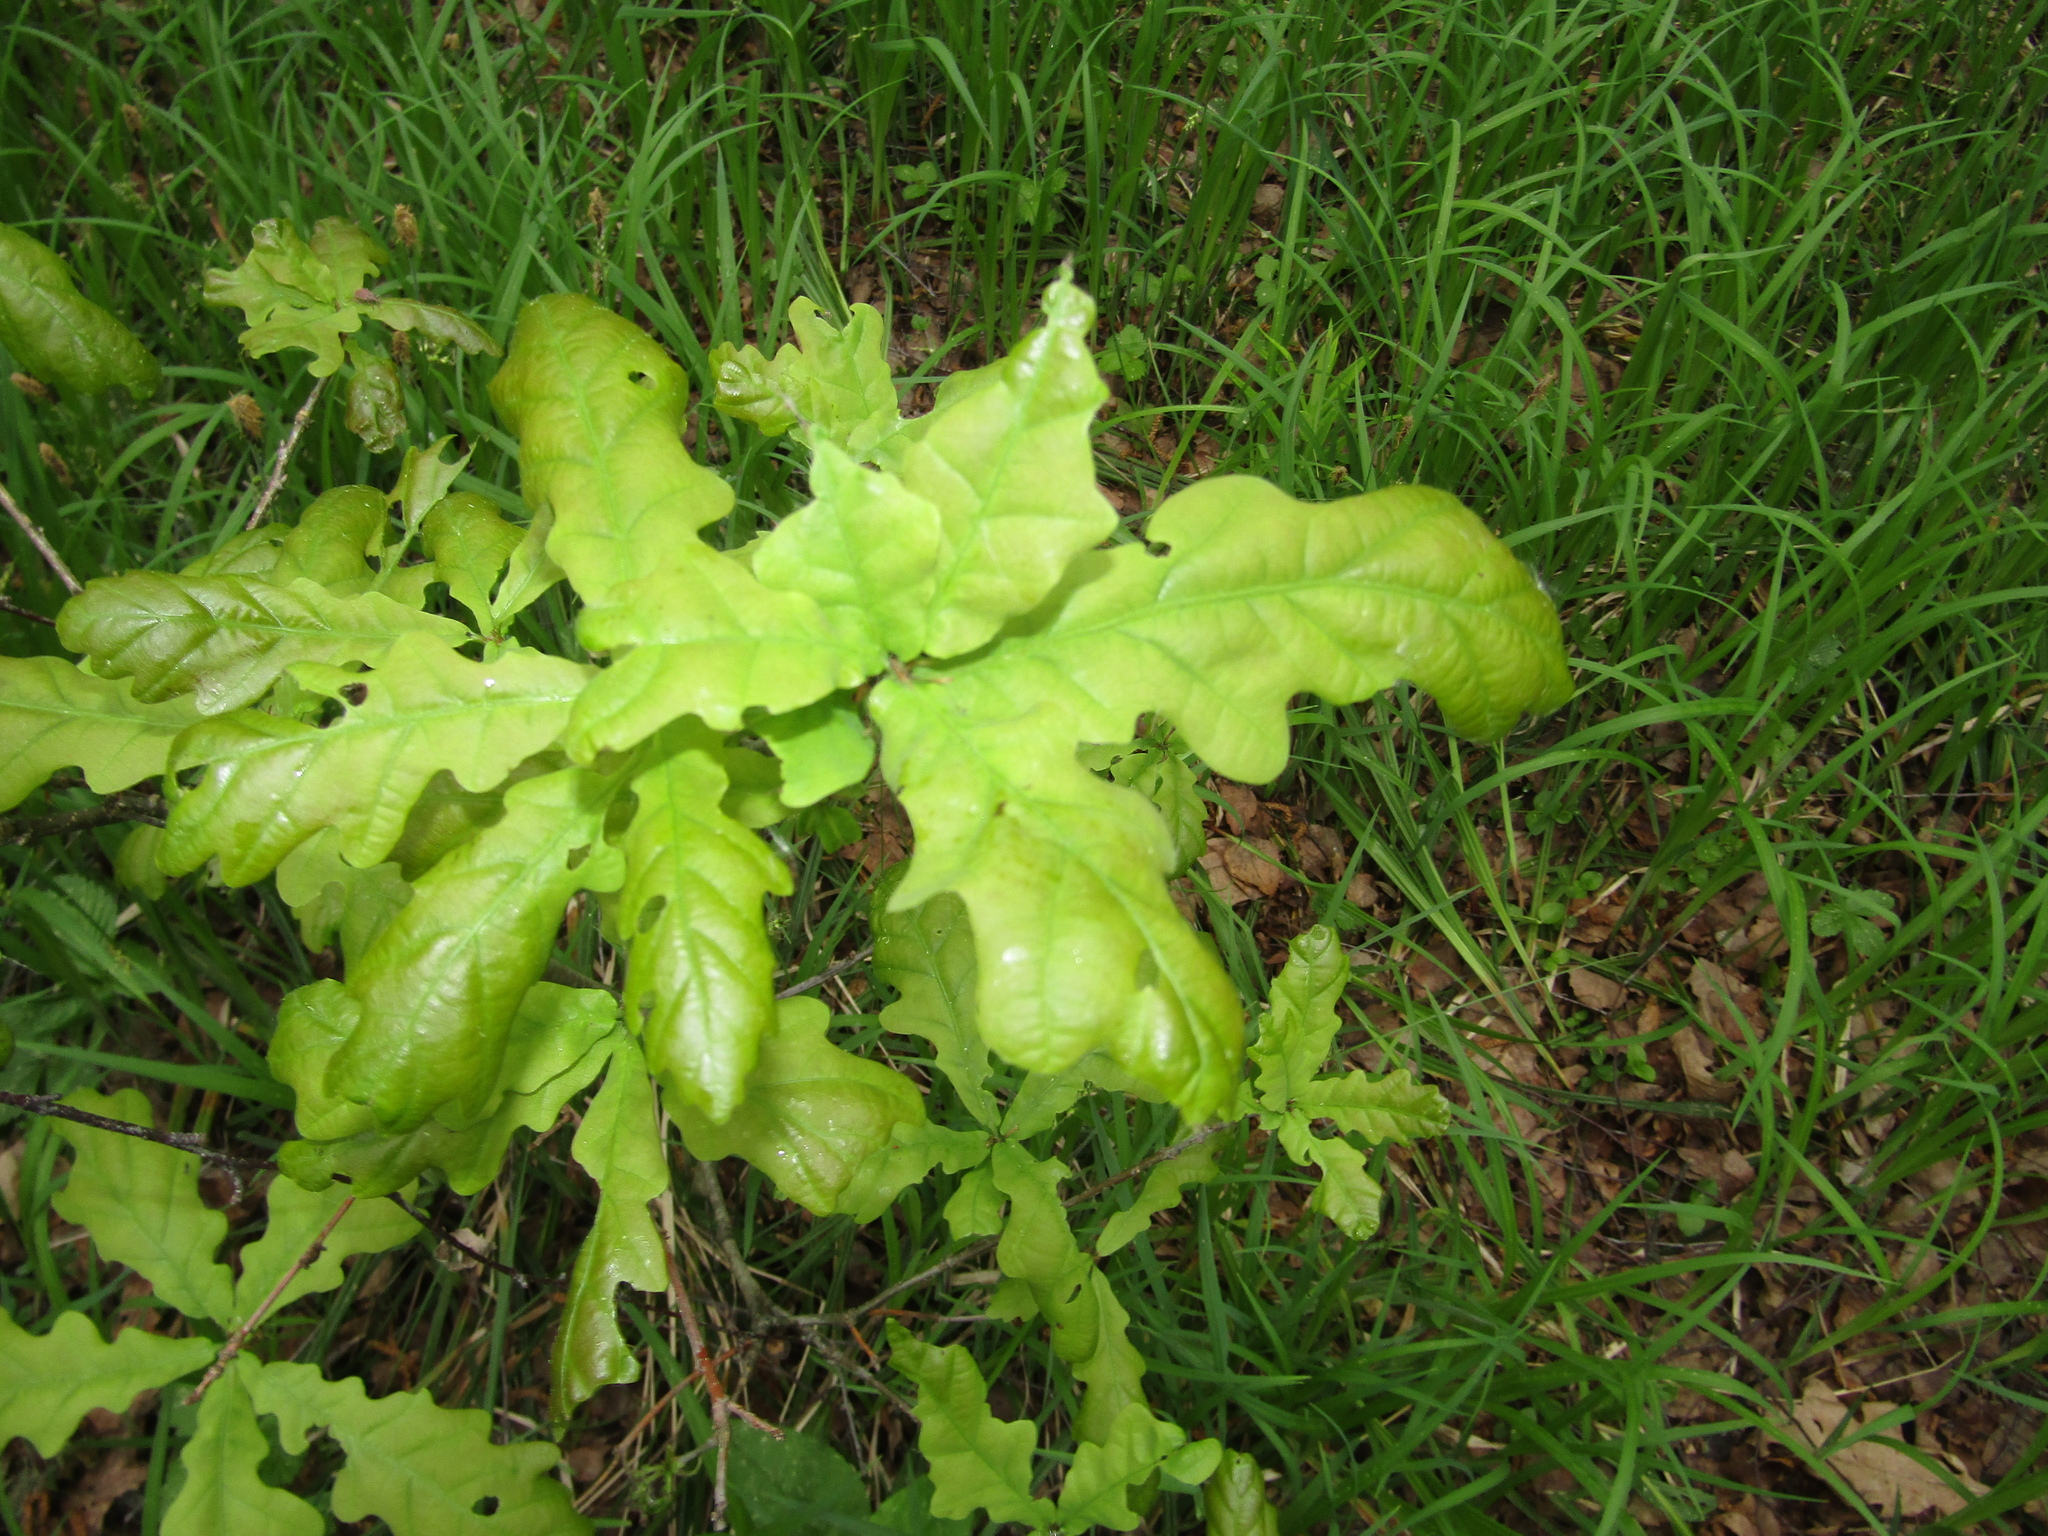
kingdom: Plantae
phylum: Tracheophyta
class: Magnoliopsida
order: Fagales
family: Fagaceae
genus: Quercus
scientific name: Quercus robur
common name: Pedunculate oak
